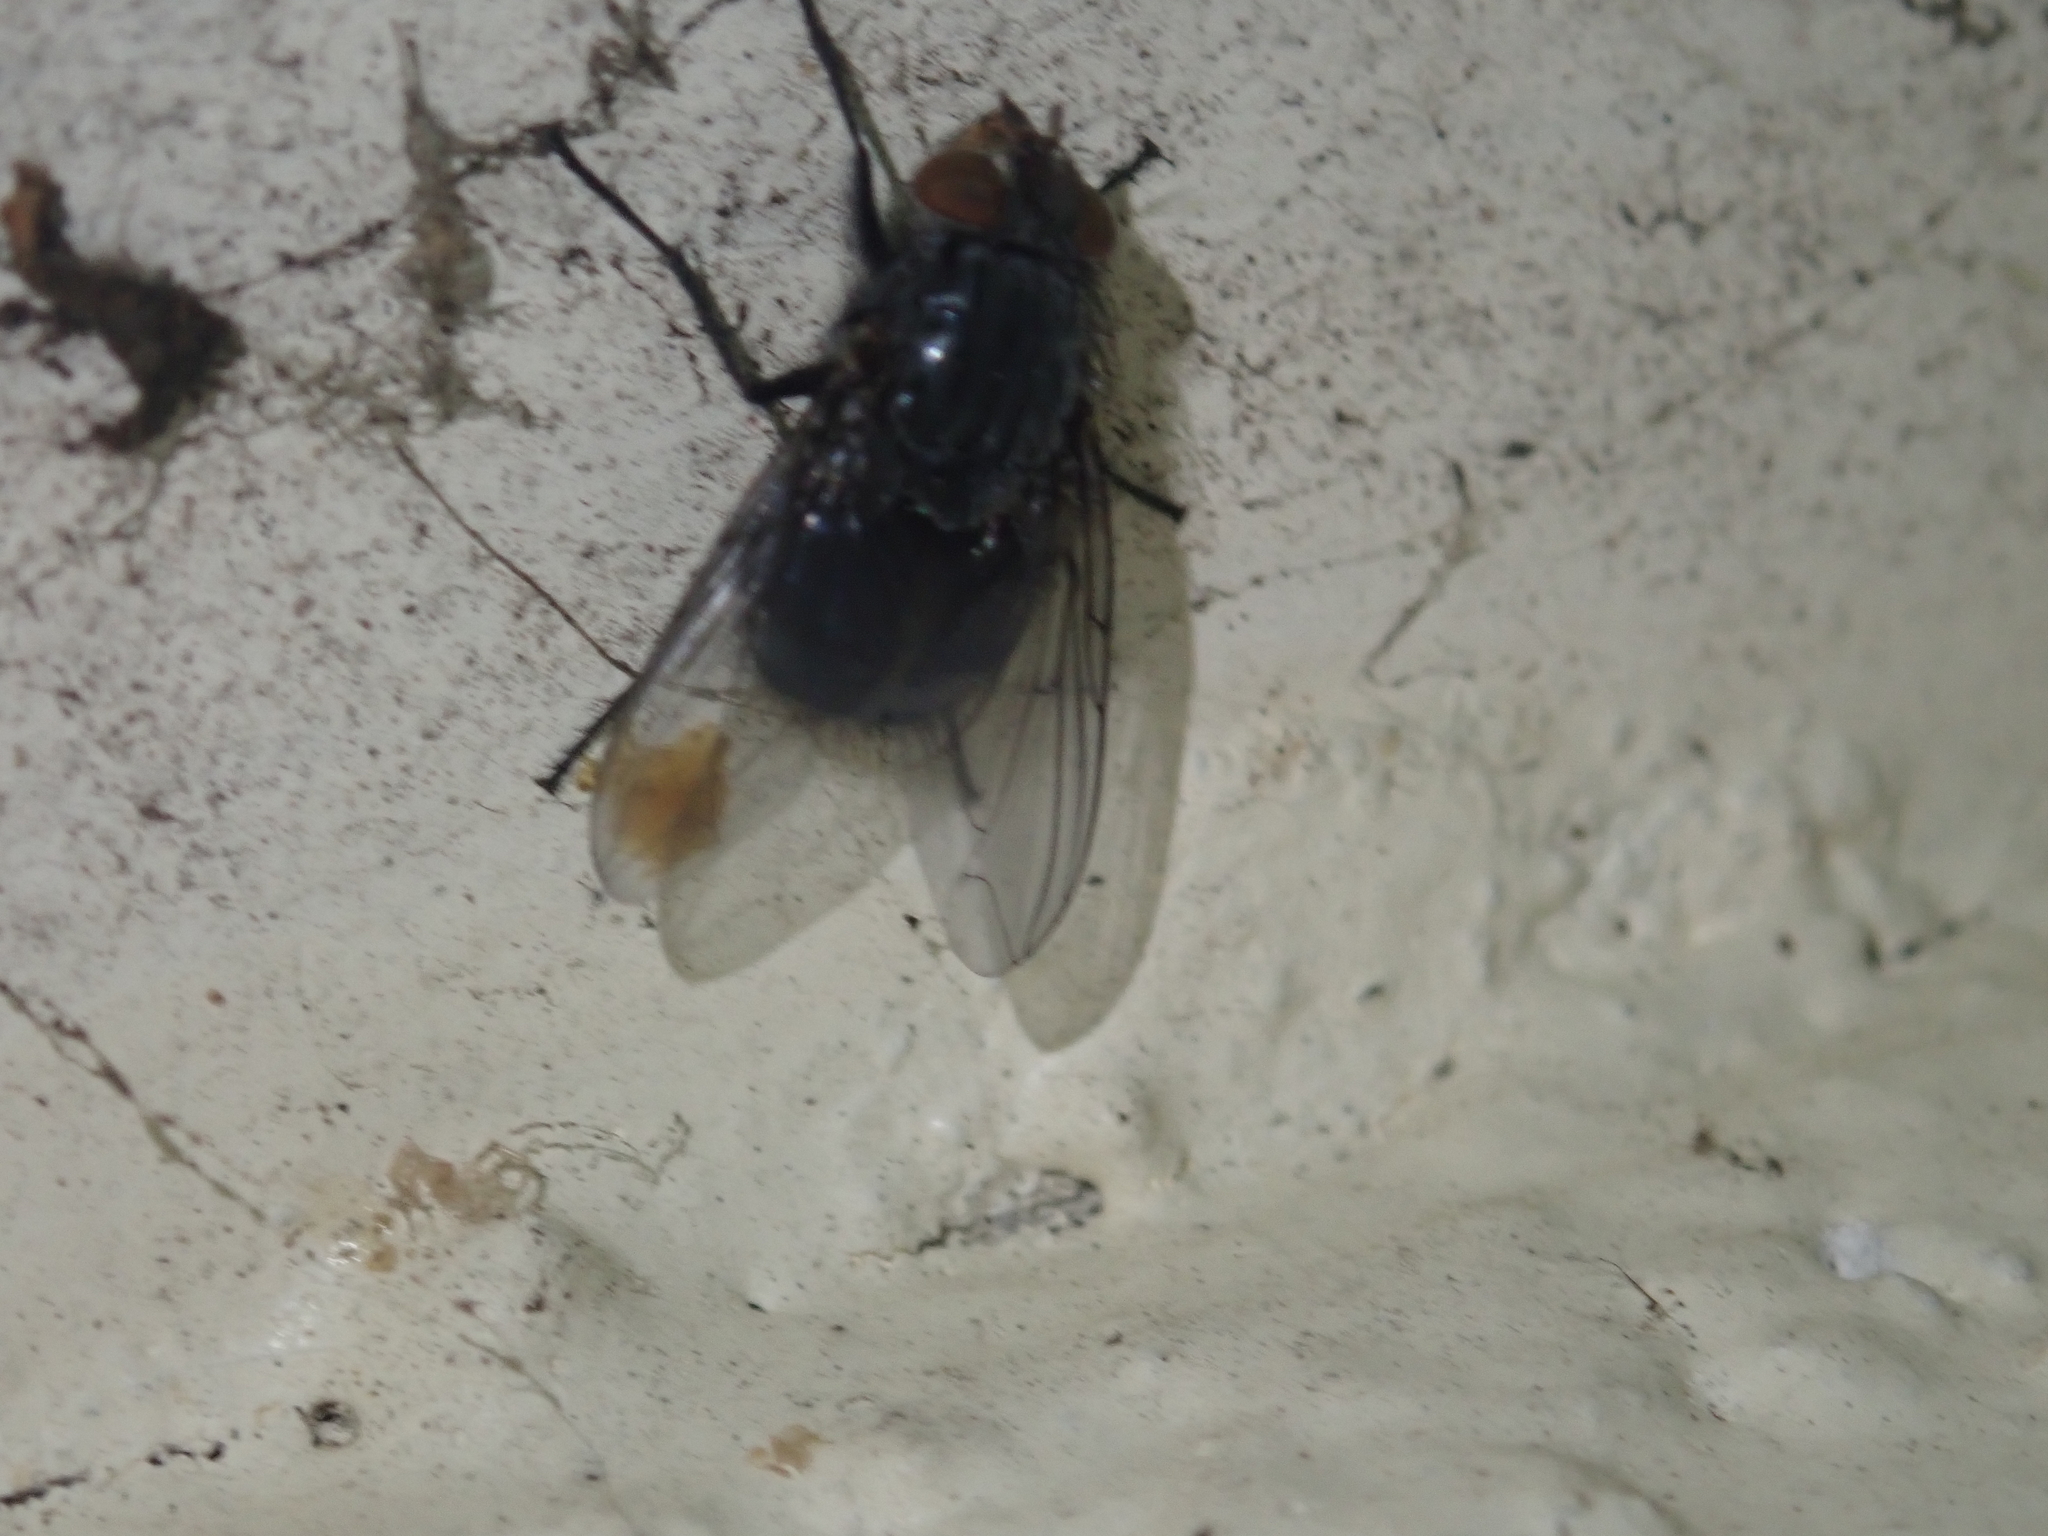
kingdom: Animalia
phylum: Arthropoda
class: Insecta
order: Diptera
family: Calliphoridae
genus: Calliphora
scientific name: Calliphora vicina
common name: Common blow flie
